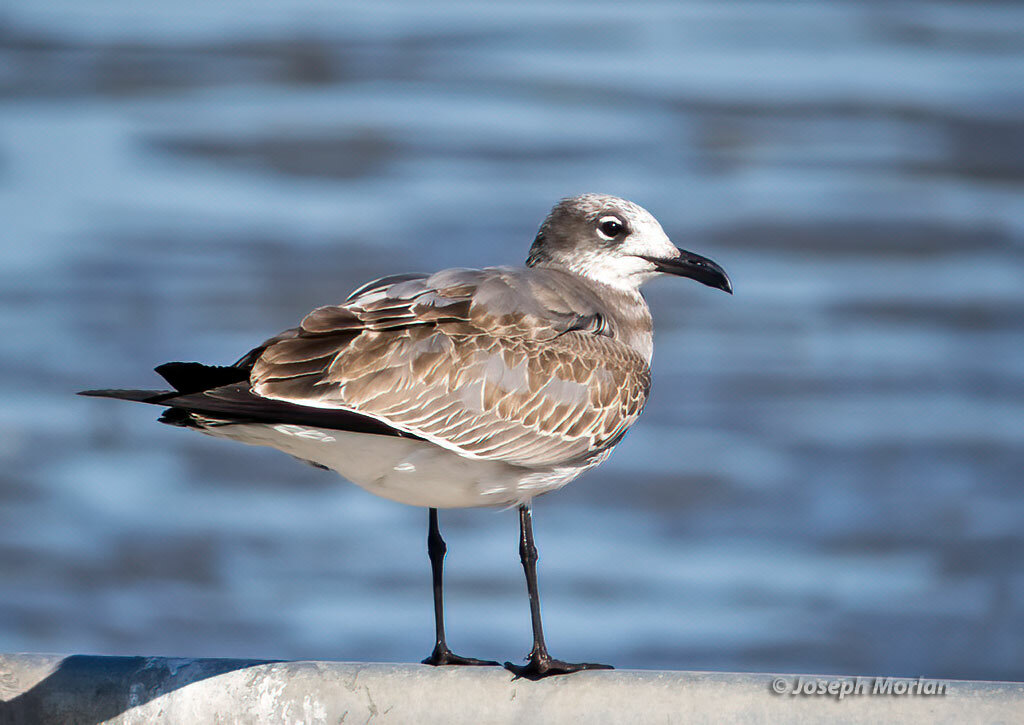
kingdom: Animalia
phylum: Chordata
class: Aves
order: Charadriiformes
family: Laridae
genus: Leucophaeus
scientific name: Leucophaeus atricilla
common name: Laughing gull
